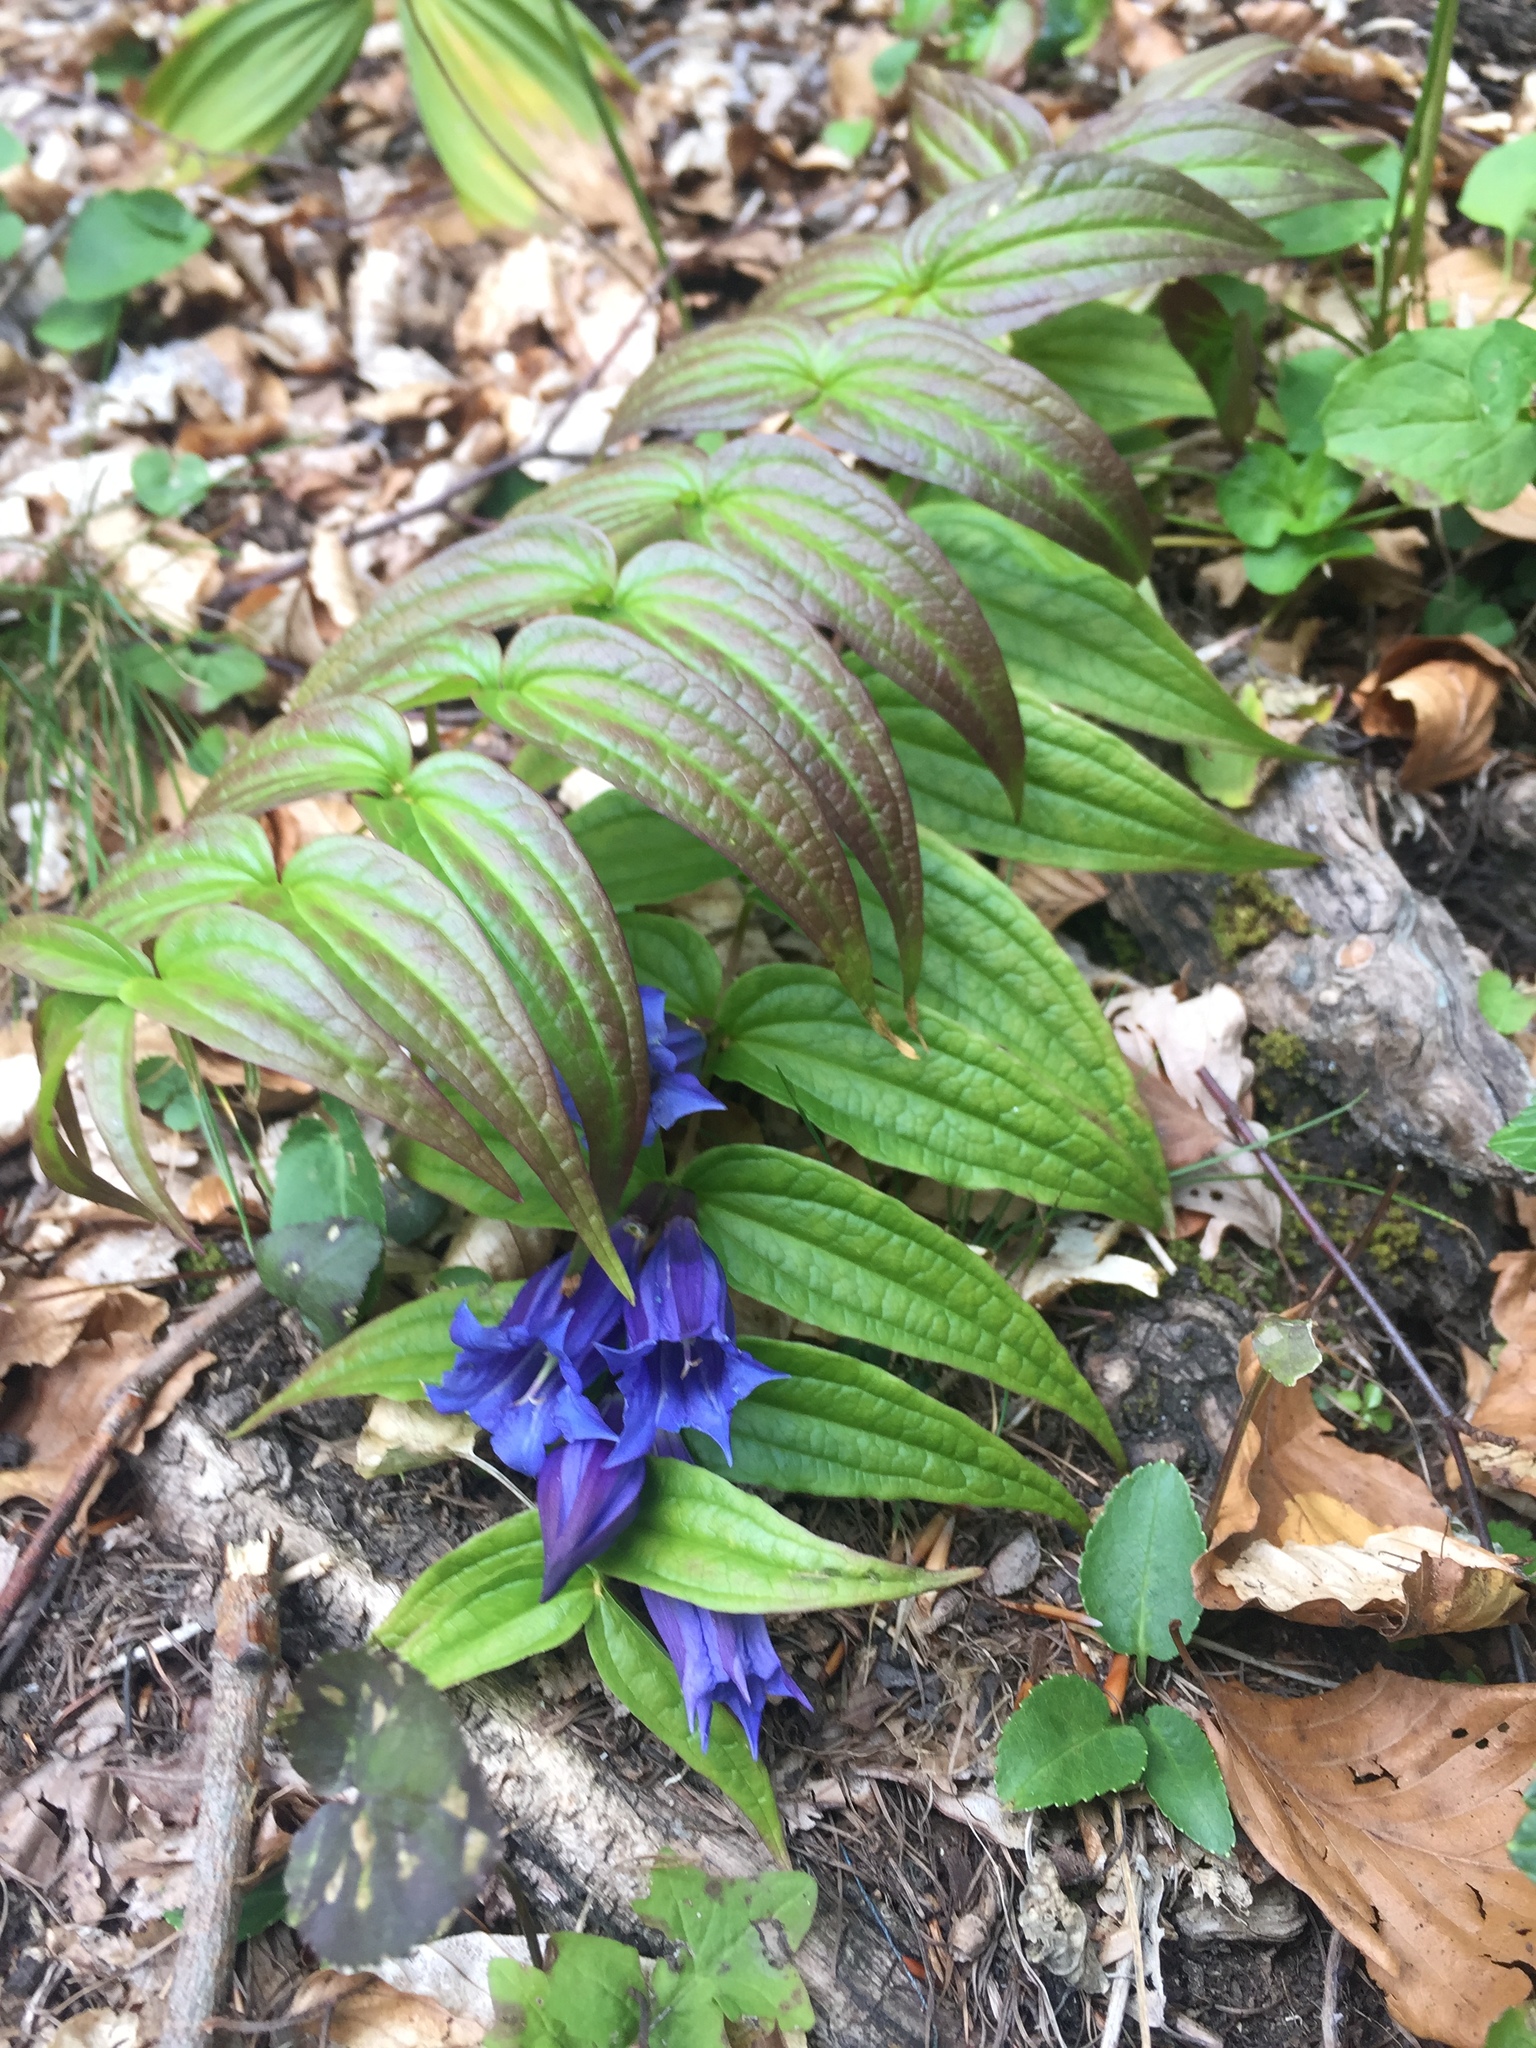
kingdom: Plantae
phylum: Tracheophyta
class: Magnoliopsida
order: Gentianales
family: Gentianaceae
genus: Gentiana
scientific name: Gentiana asclepiadea
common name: Willow gentian
